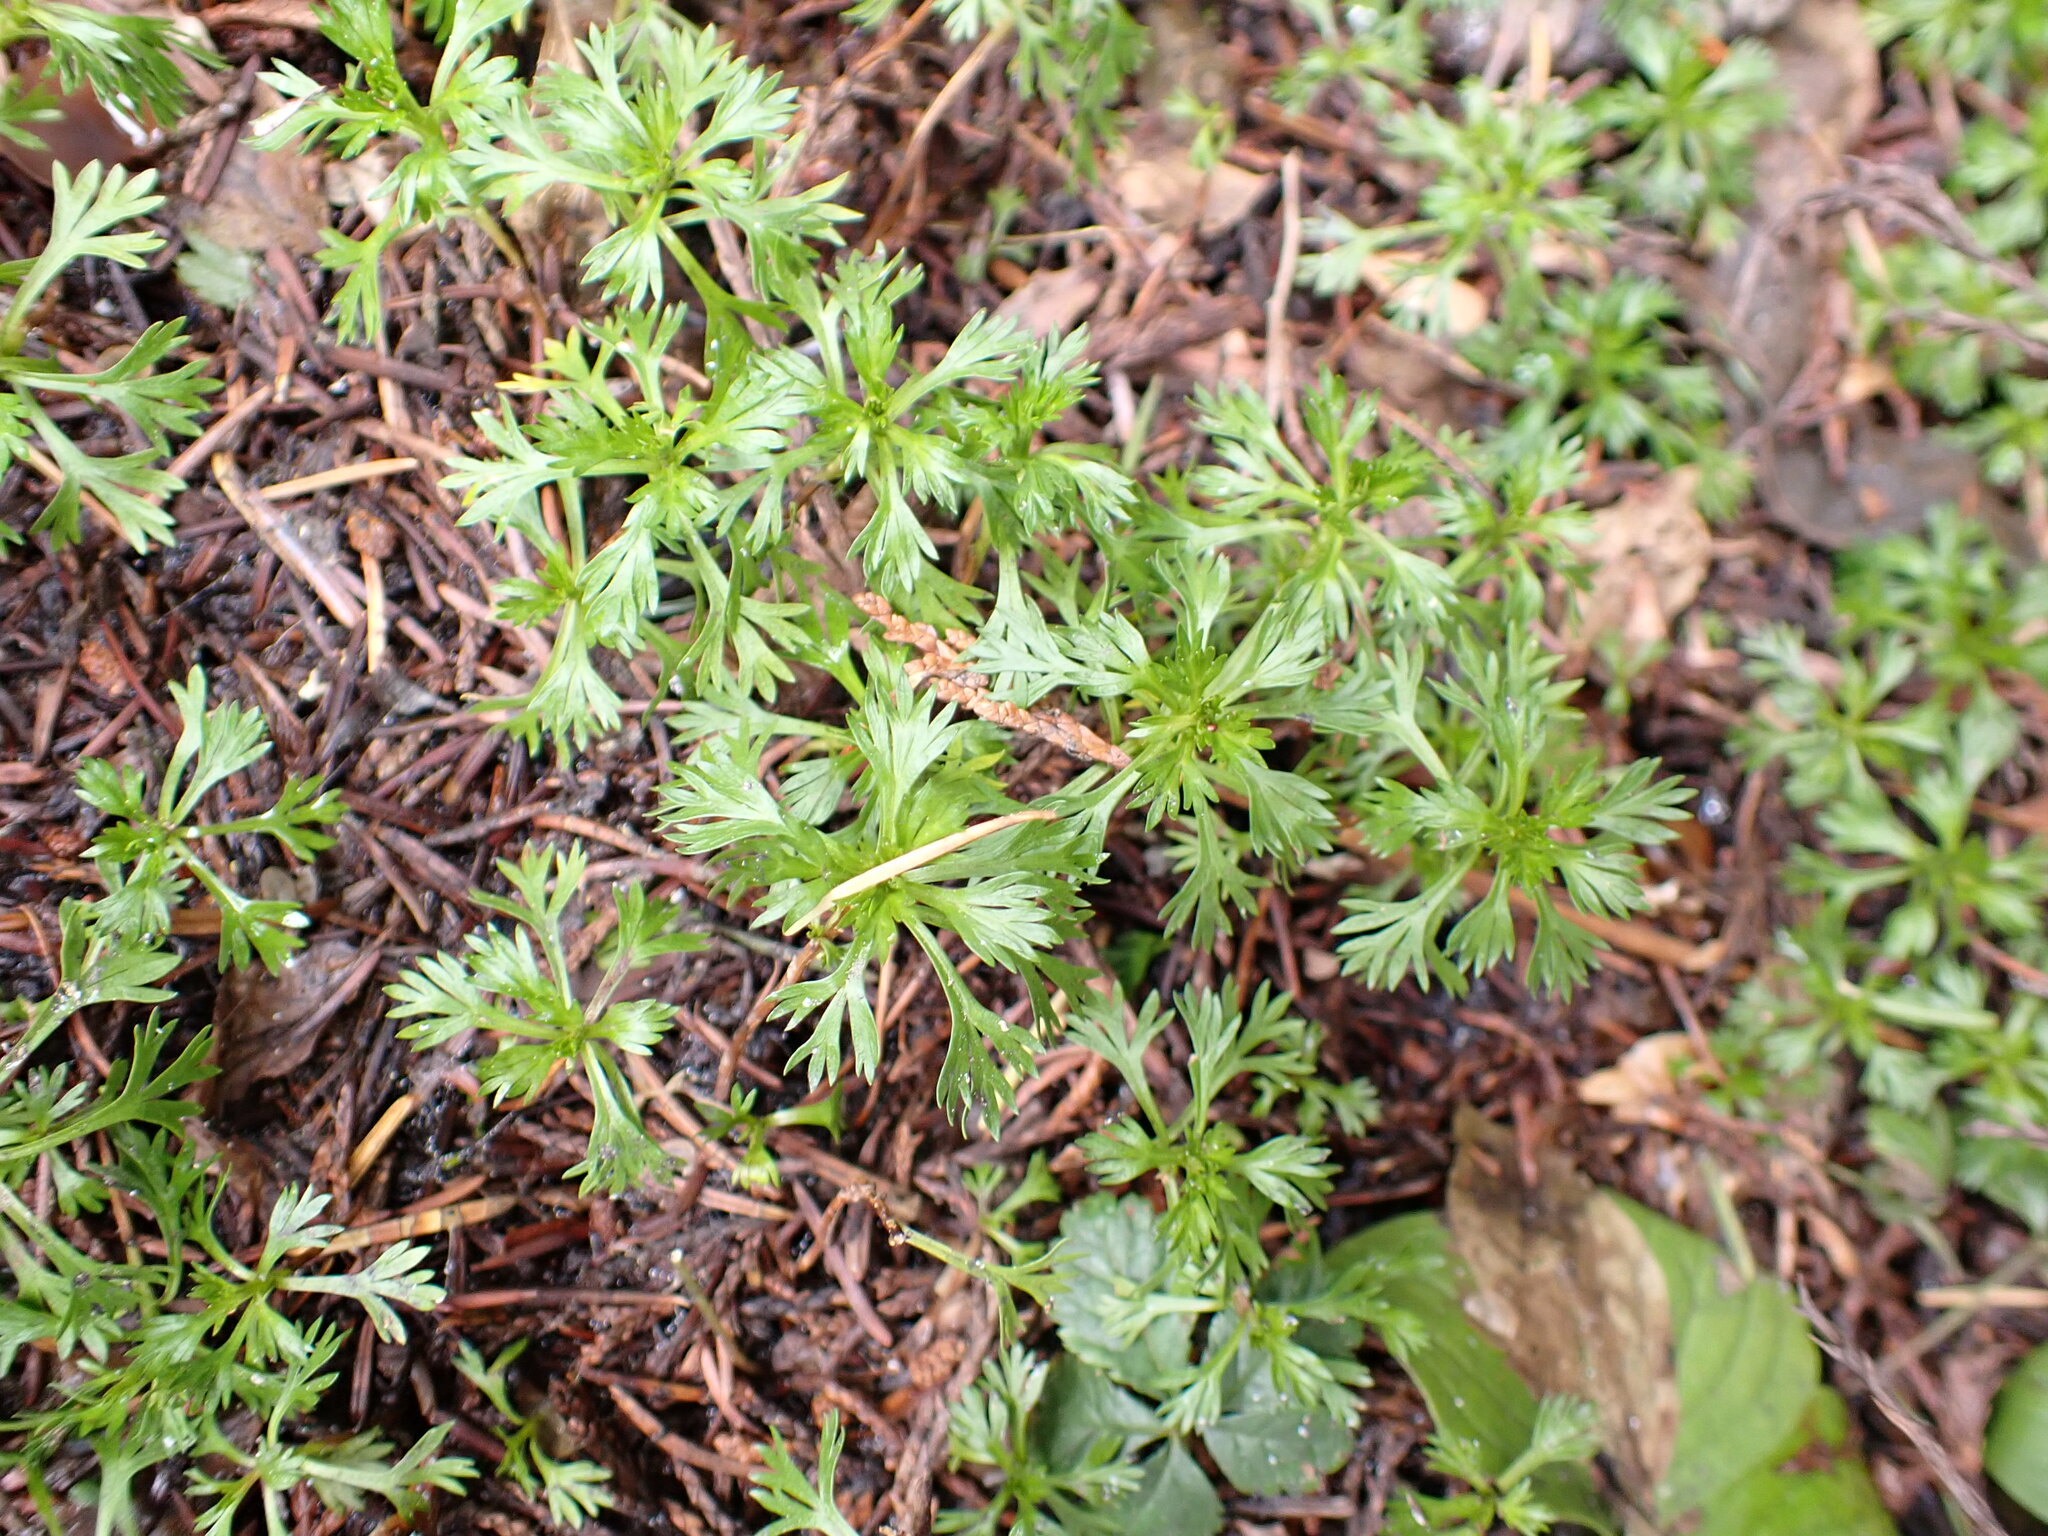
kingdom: Plantae
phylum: Tracheophyta
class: Magnoliopsida
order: Rosales
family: Rosaceae
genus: Luetkea
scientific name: Luetkea pectinata
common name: Partridgefoot
